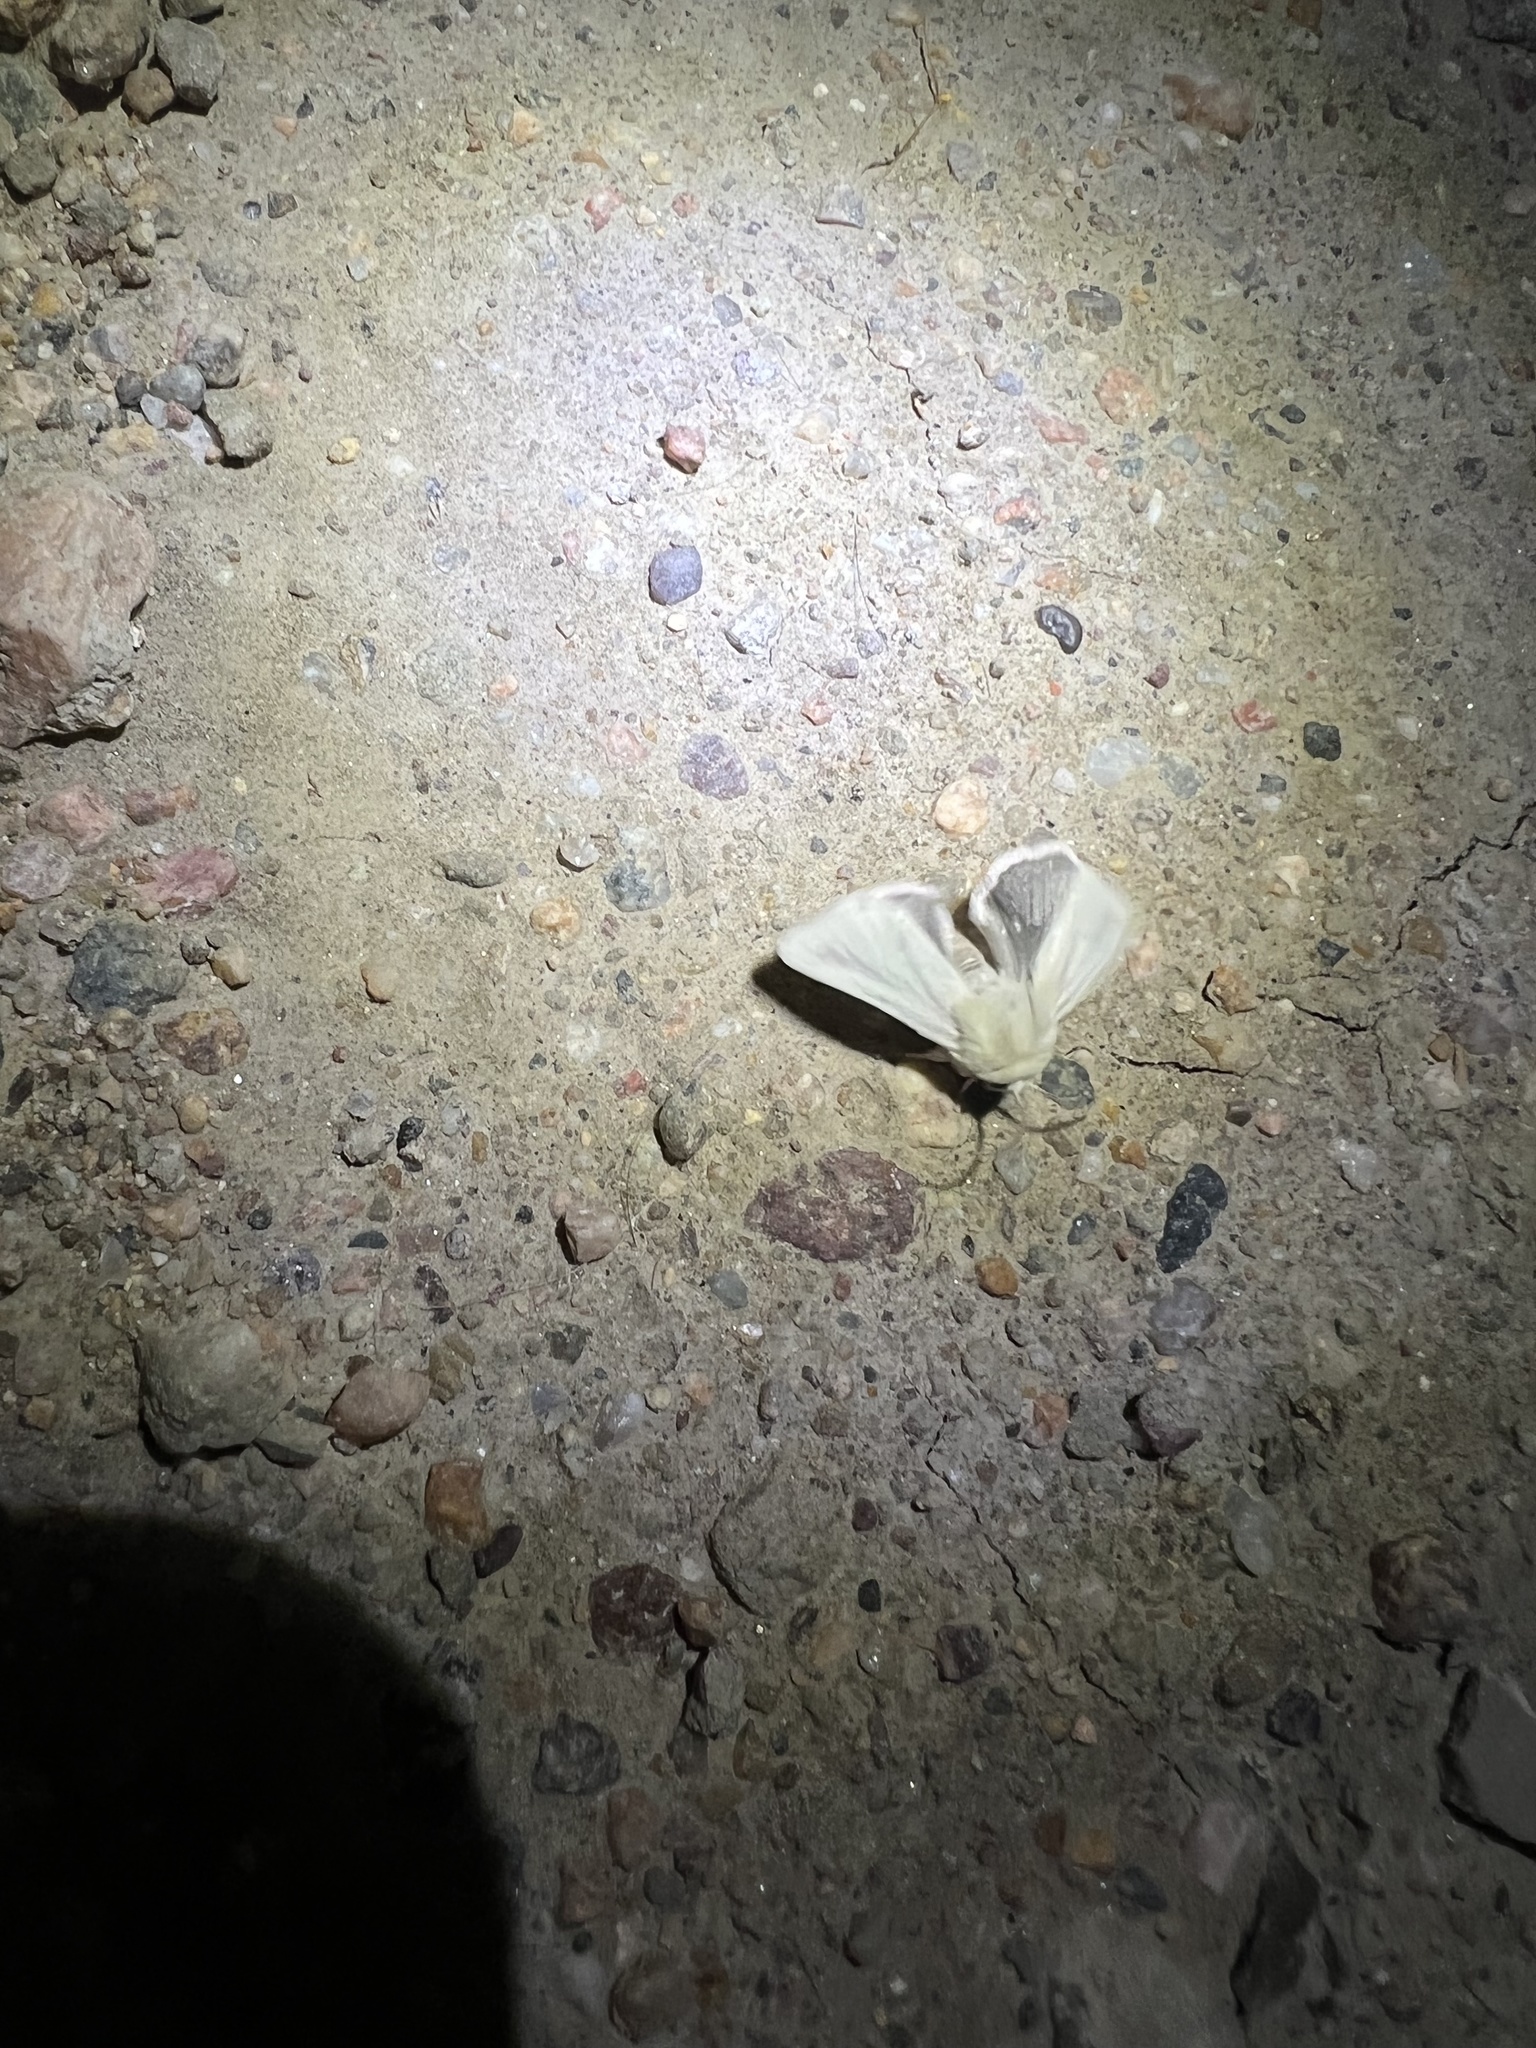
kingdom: Animalia
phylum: Arthropoda
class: Insecta
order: Lepidoptera
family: Noctuidae
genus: Schinia
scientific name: Schinia snowi
